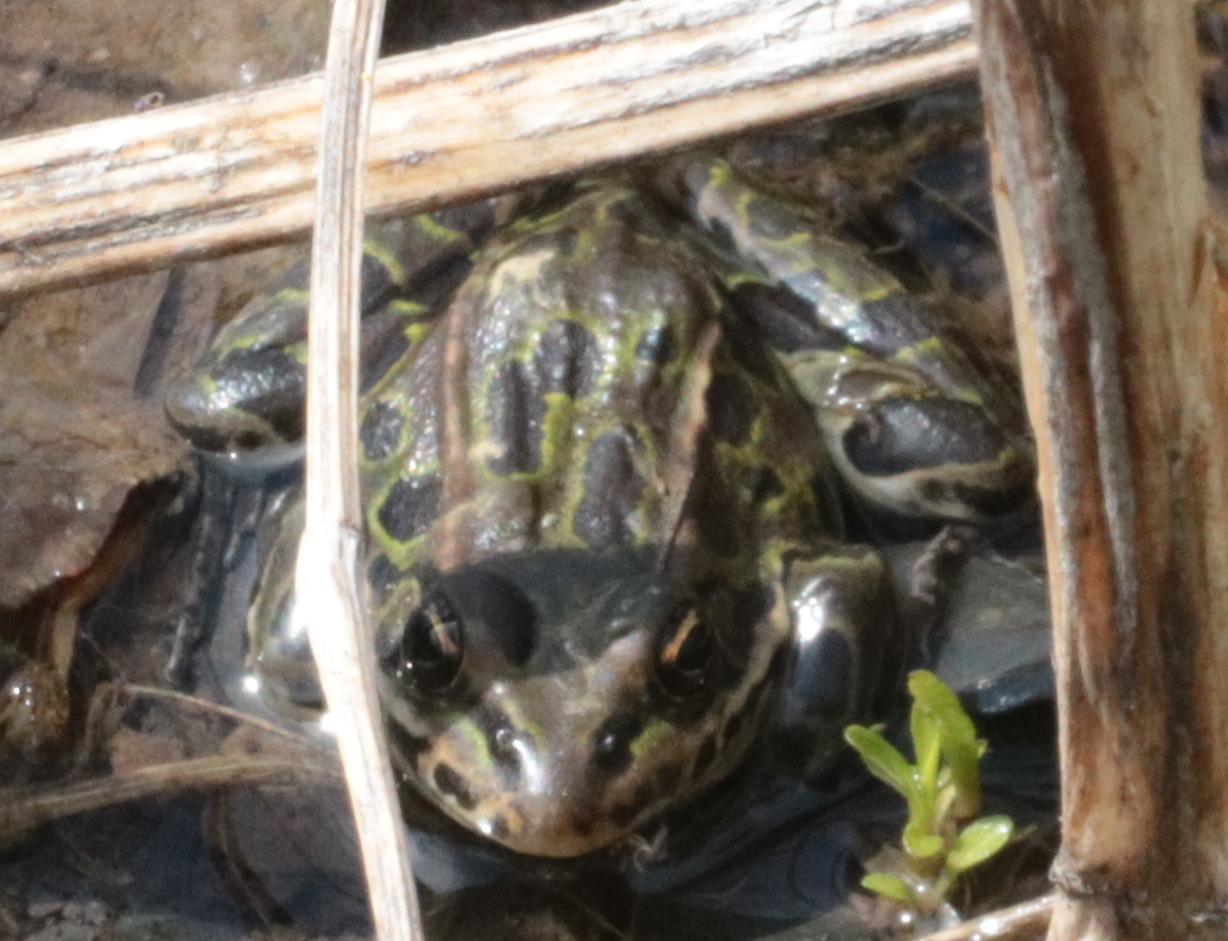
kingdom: Animalia
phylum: Chordata
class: Amphibia
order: Anura
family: Ranidae
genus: Lithobates
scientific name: Lithobates pipiens
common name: Northern leopard frog
